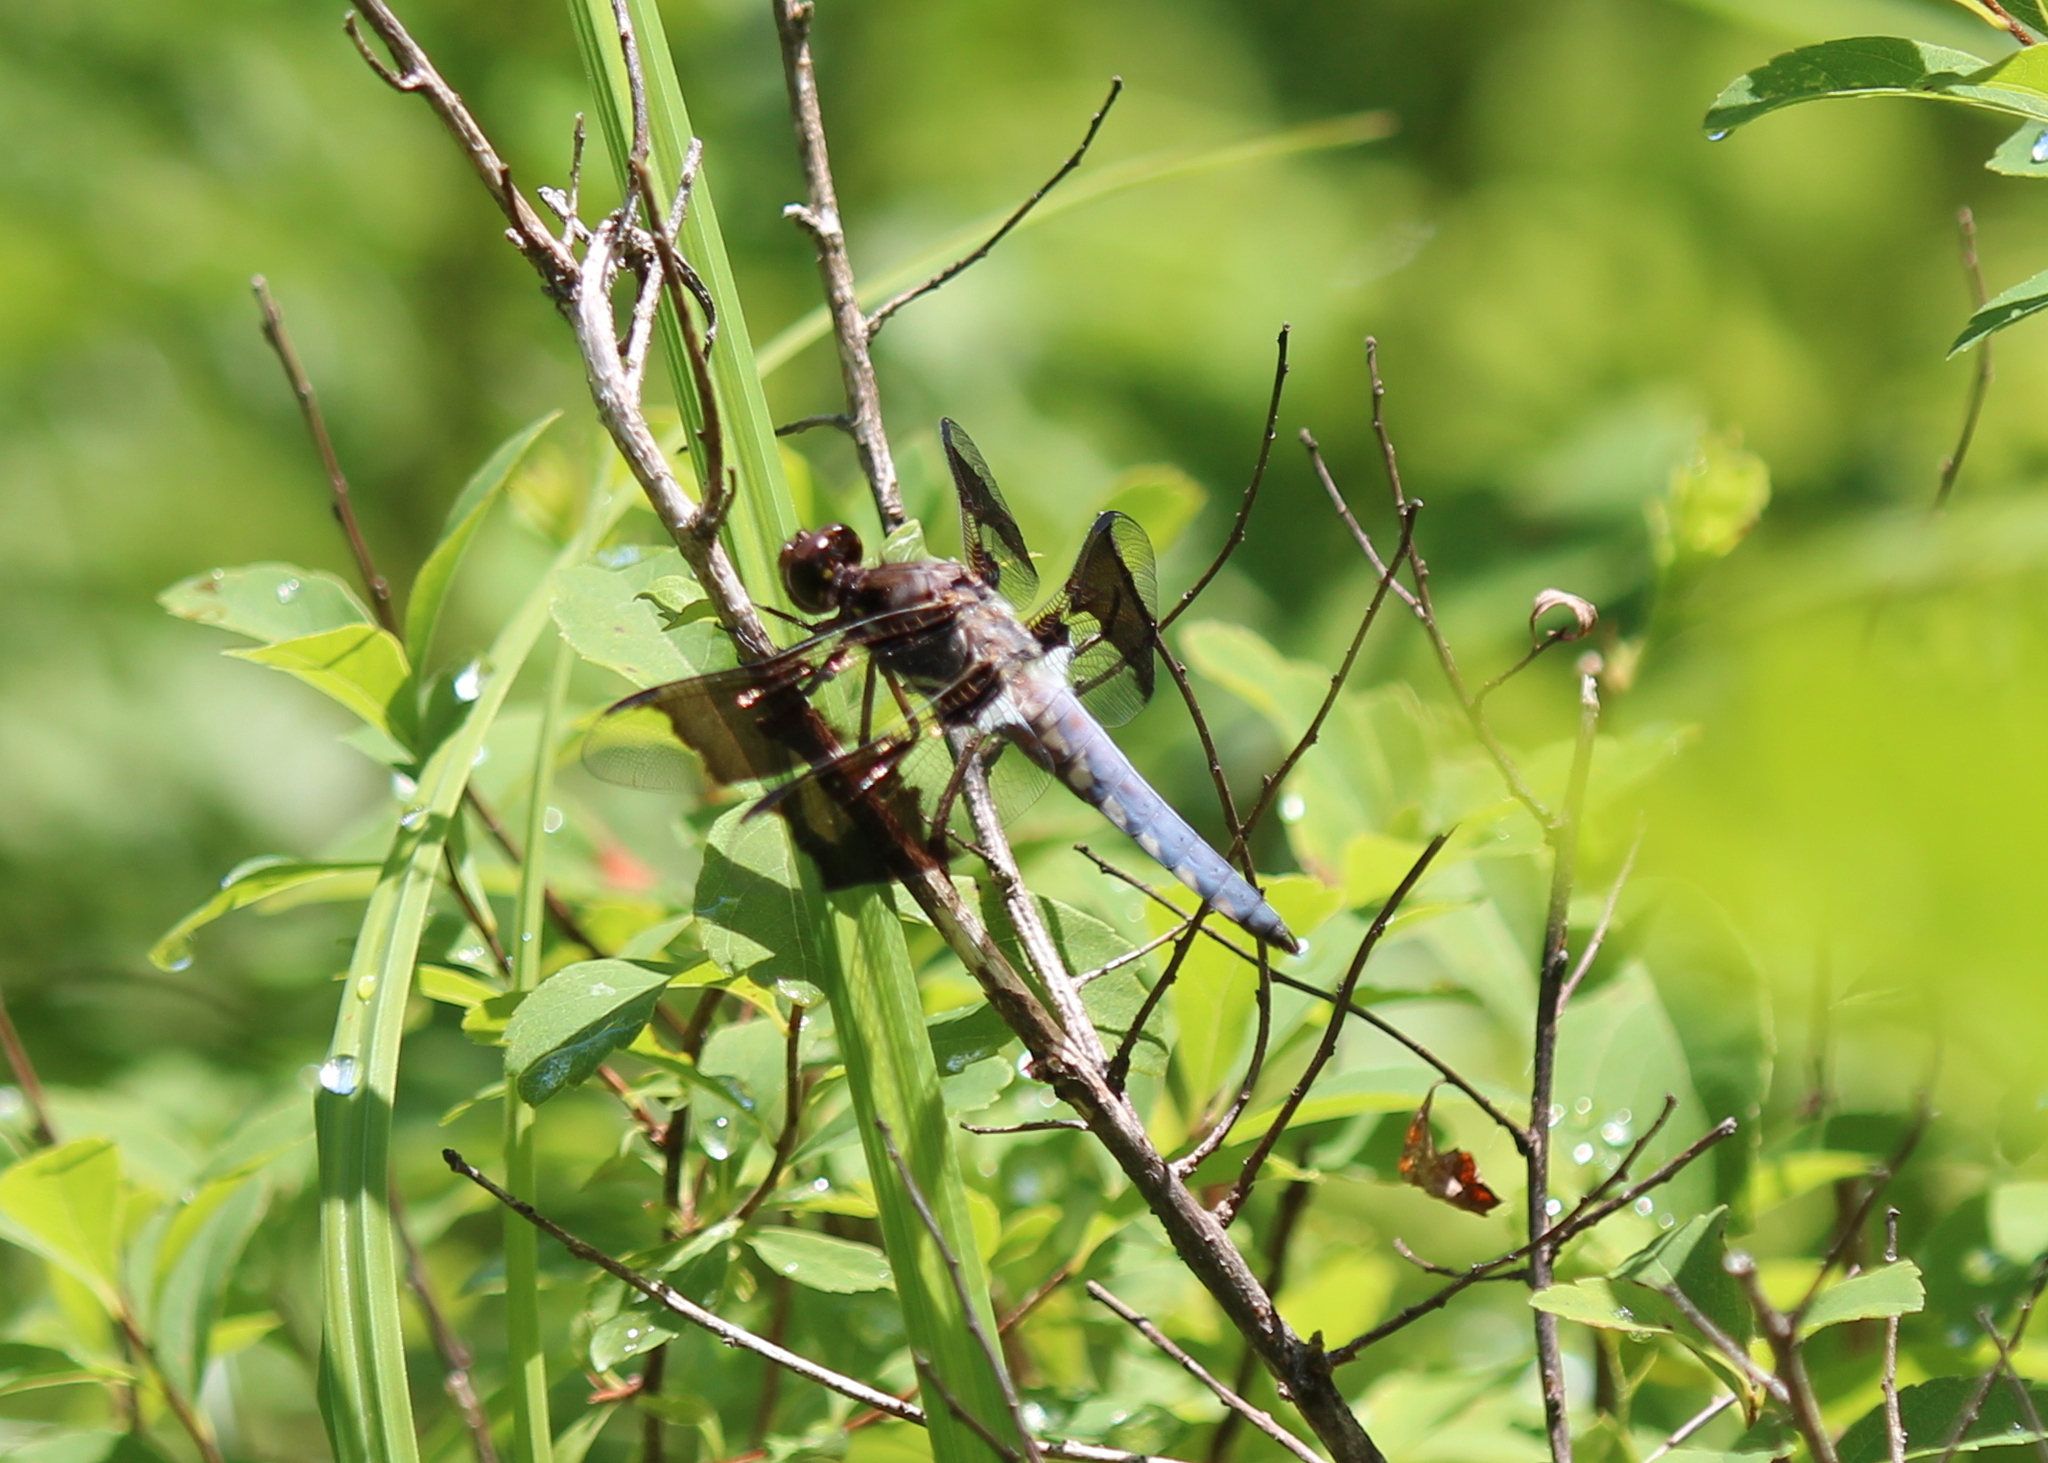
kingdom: Animalia
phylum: Arthropoda
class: Insecta
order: Odonata
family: Libellulidae
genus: Plathemis
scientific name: Plathemis lydia
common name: Common whitetail
